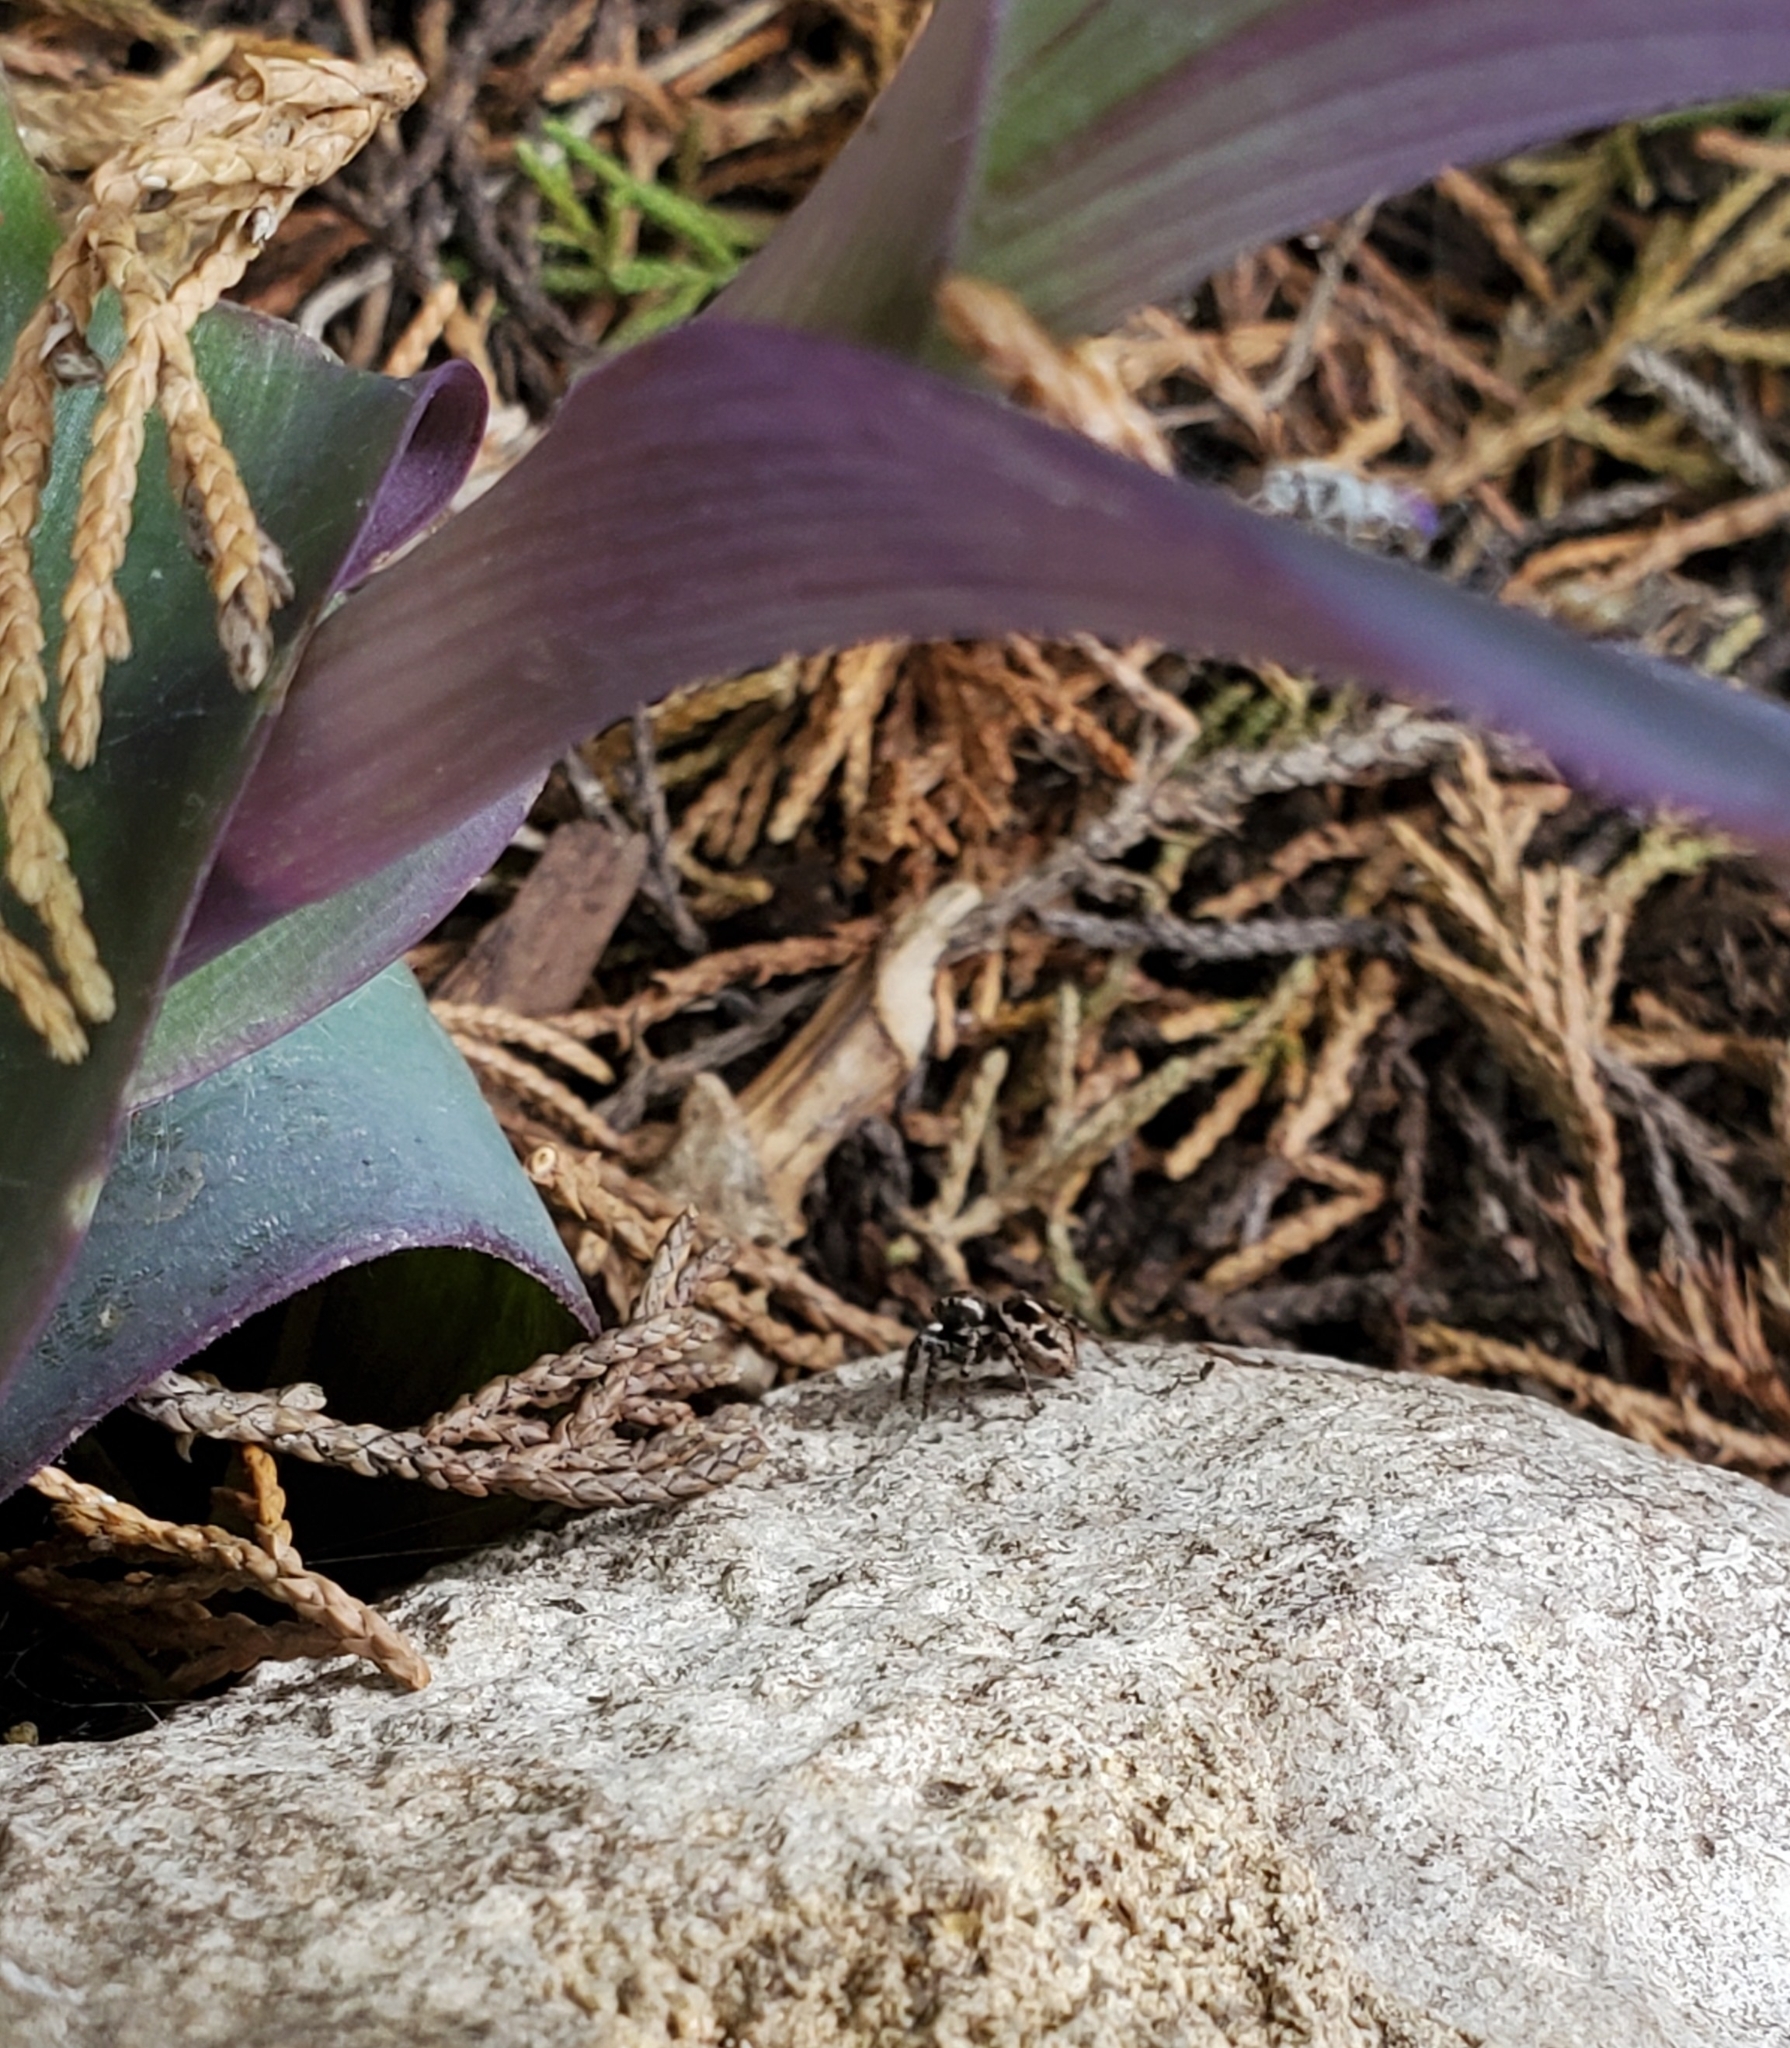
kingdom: Animalia
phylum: Arthropoda
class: Arachnida
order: Araneae
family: Salticidae
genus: Anasaitis
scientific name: Anasaitis canosa
